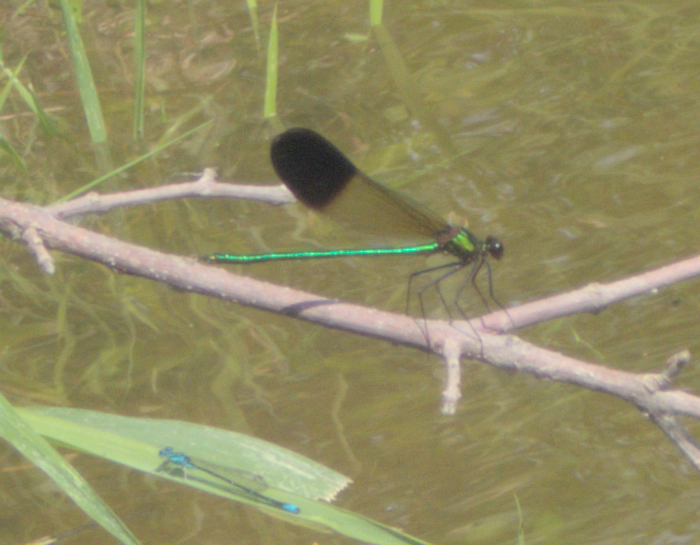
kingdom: Animalia
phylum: Arthropoda
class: Insecta
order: Odonata
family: Calopterygidae
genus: Calopteryx
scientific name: Calopteryx aequabilis
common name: River jewelwing
